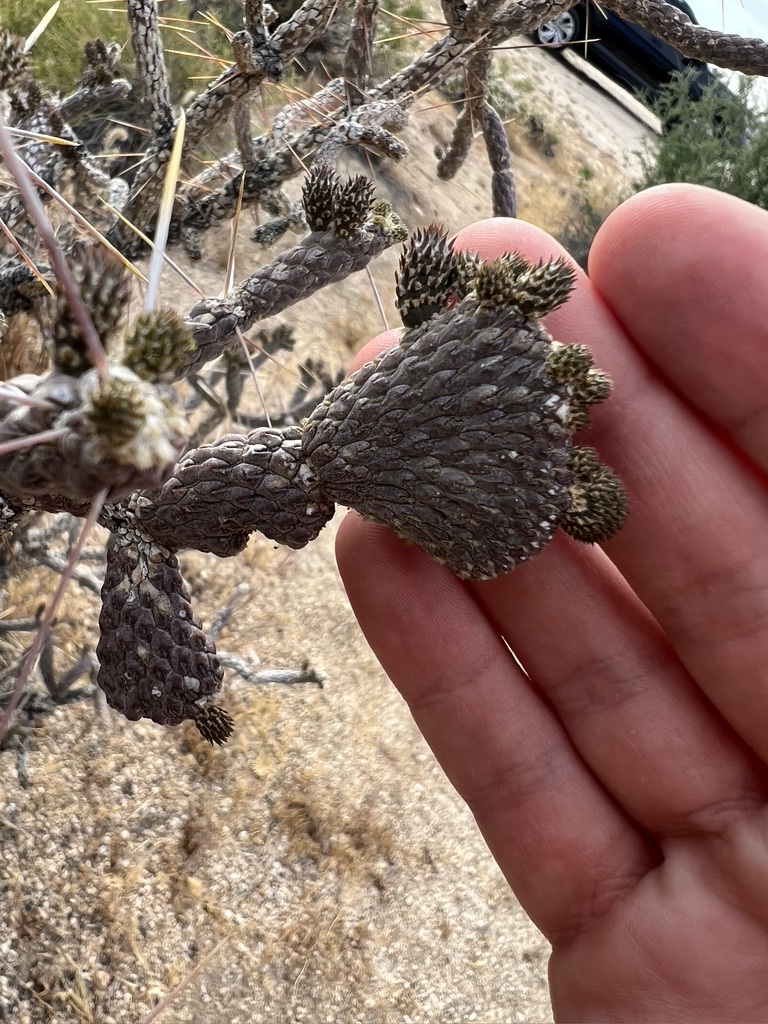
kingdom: Plantae
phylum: Tracheophyta
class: Magnoliopsida
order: Caryophyllales
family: Cactaceae
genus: Cylindropuntia
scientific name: Cylindropuntia ramosissima
